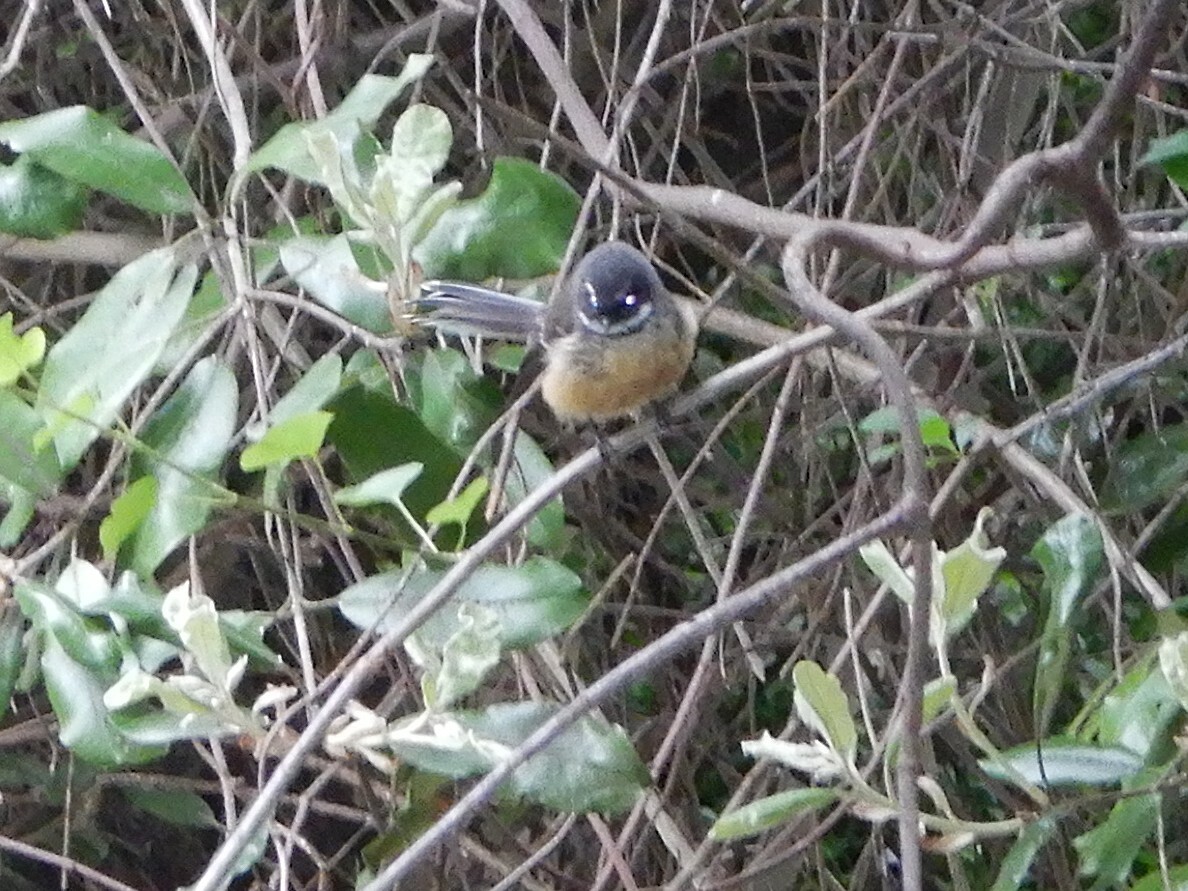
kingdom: Animalia
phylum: Chordata
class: Aves
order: Passeriformes
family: Rhipiduridae
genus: Rhipidura
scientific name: Rhipidura fuliginosa
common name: New zealand fantail
